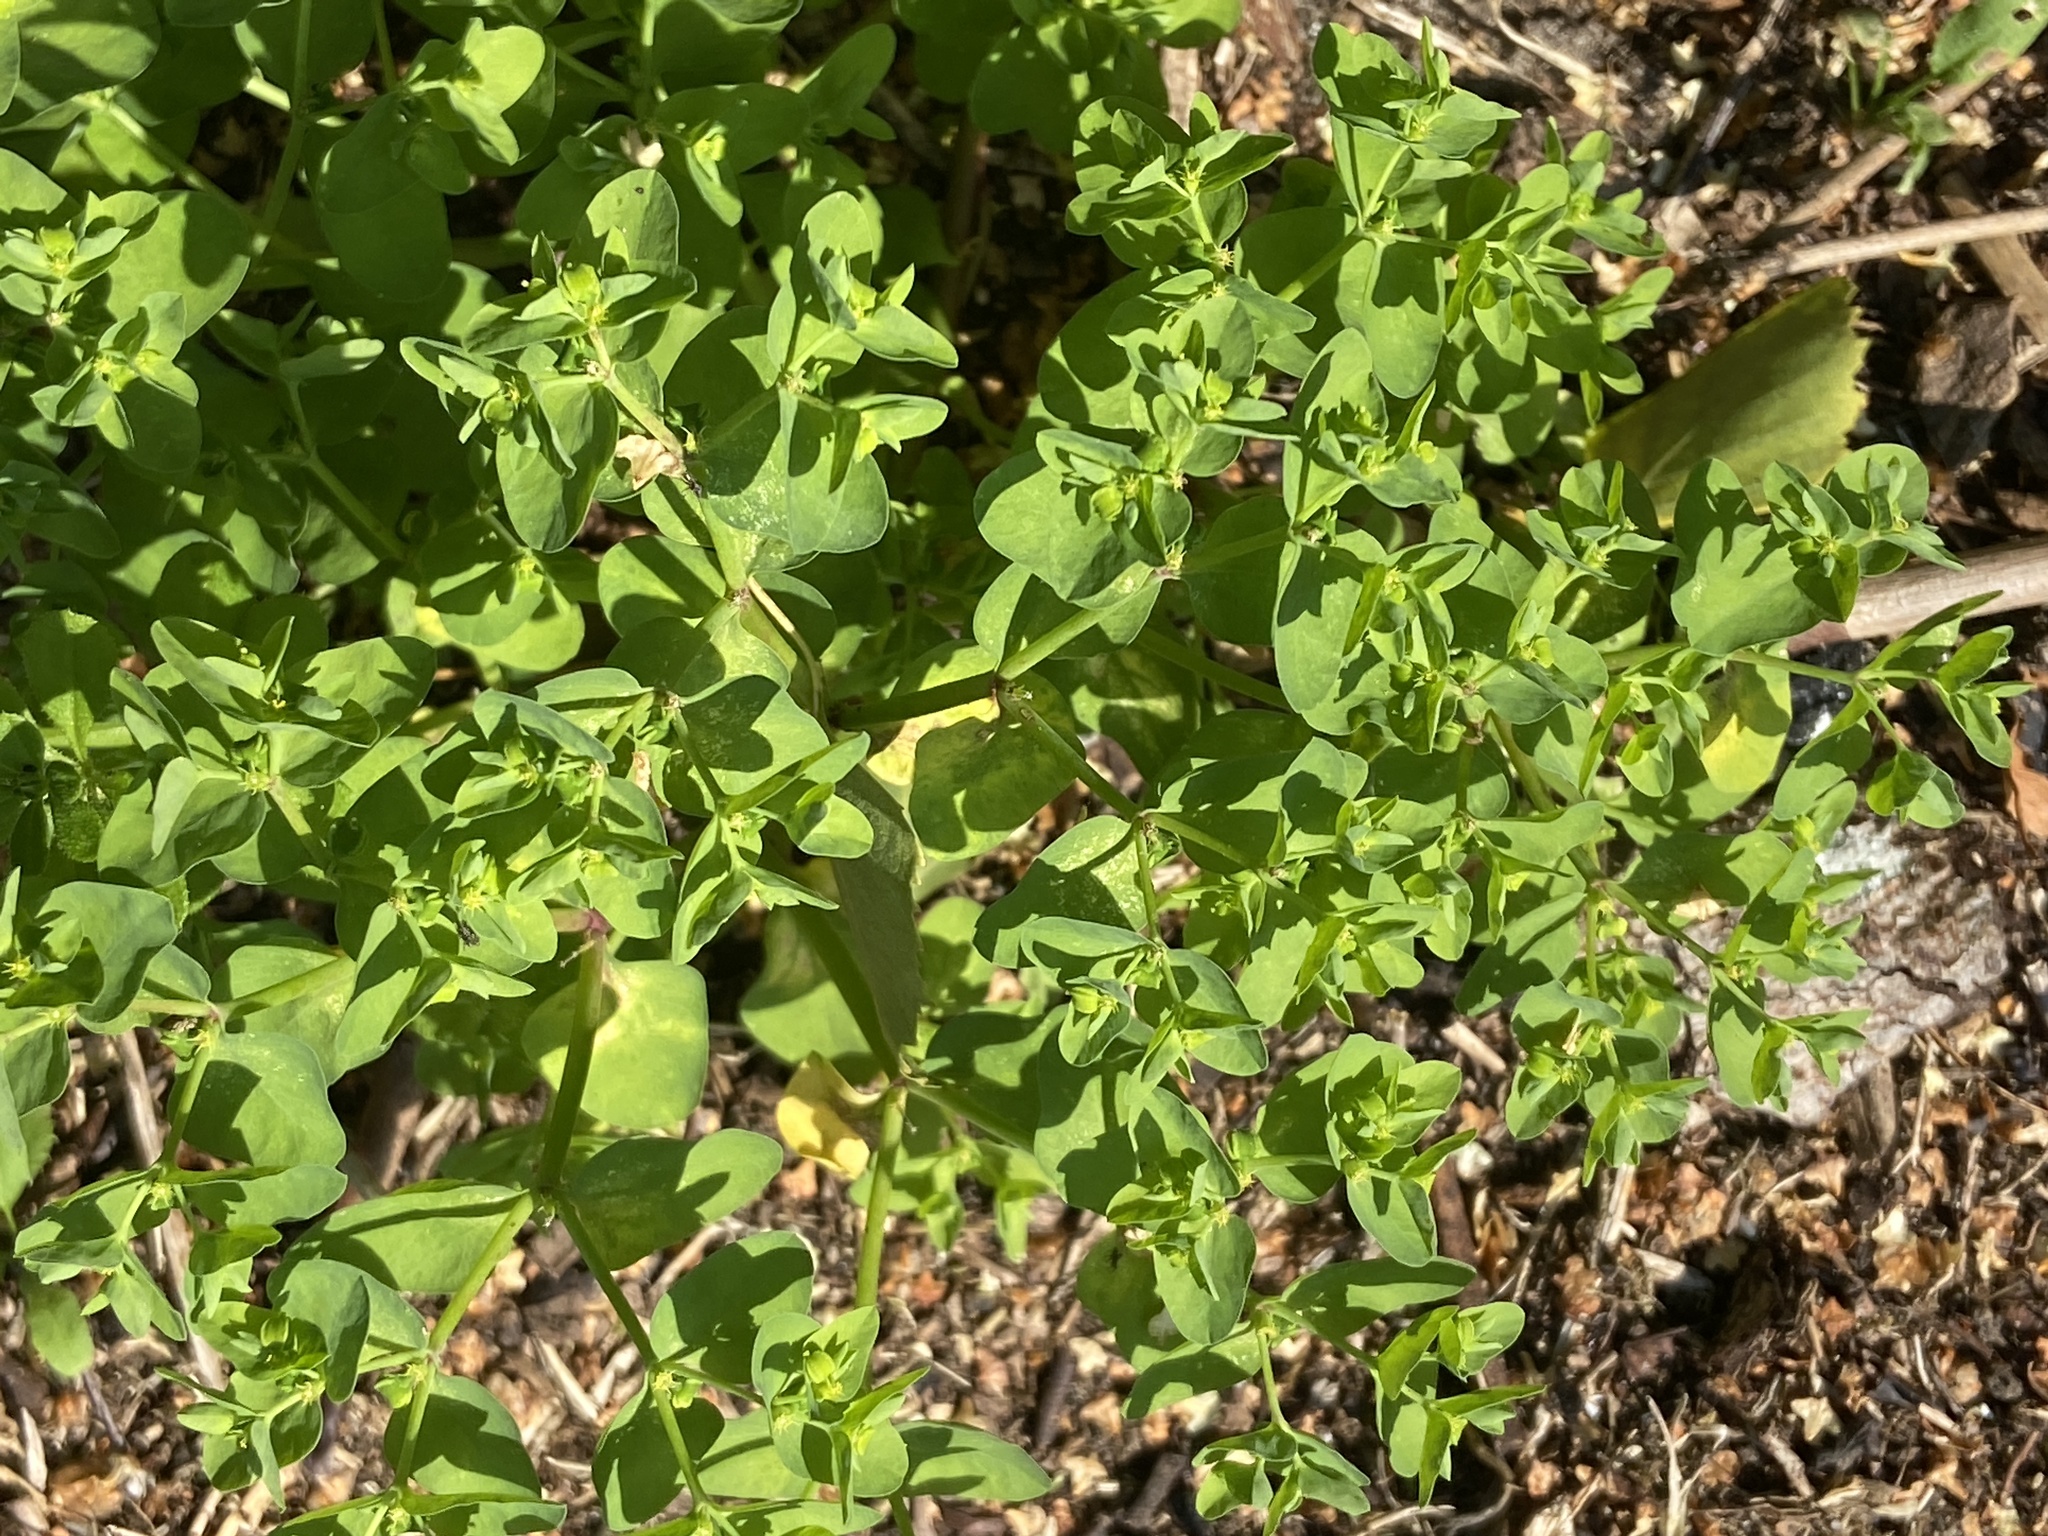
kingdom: Plantae
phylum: Tracheophyta
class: Magnoliopsida
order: Malpighiales
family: Euphorbiaceae
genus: Euphorbia
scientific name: Euphorbia peplus
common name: Petty spurge
